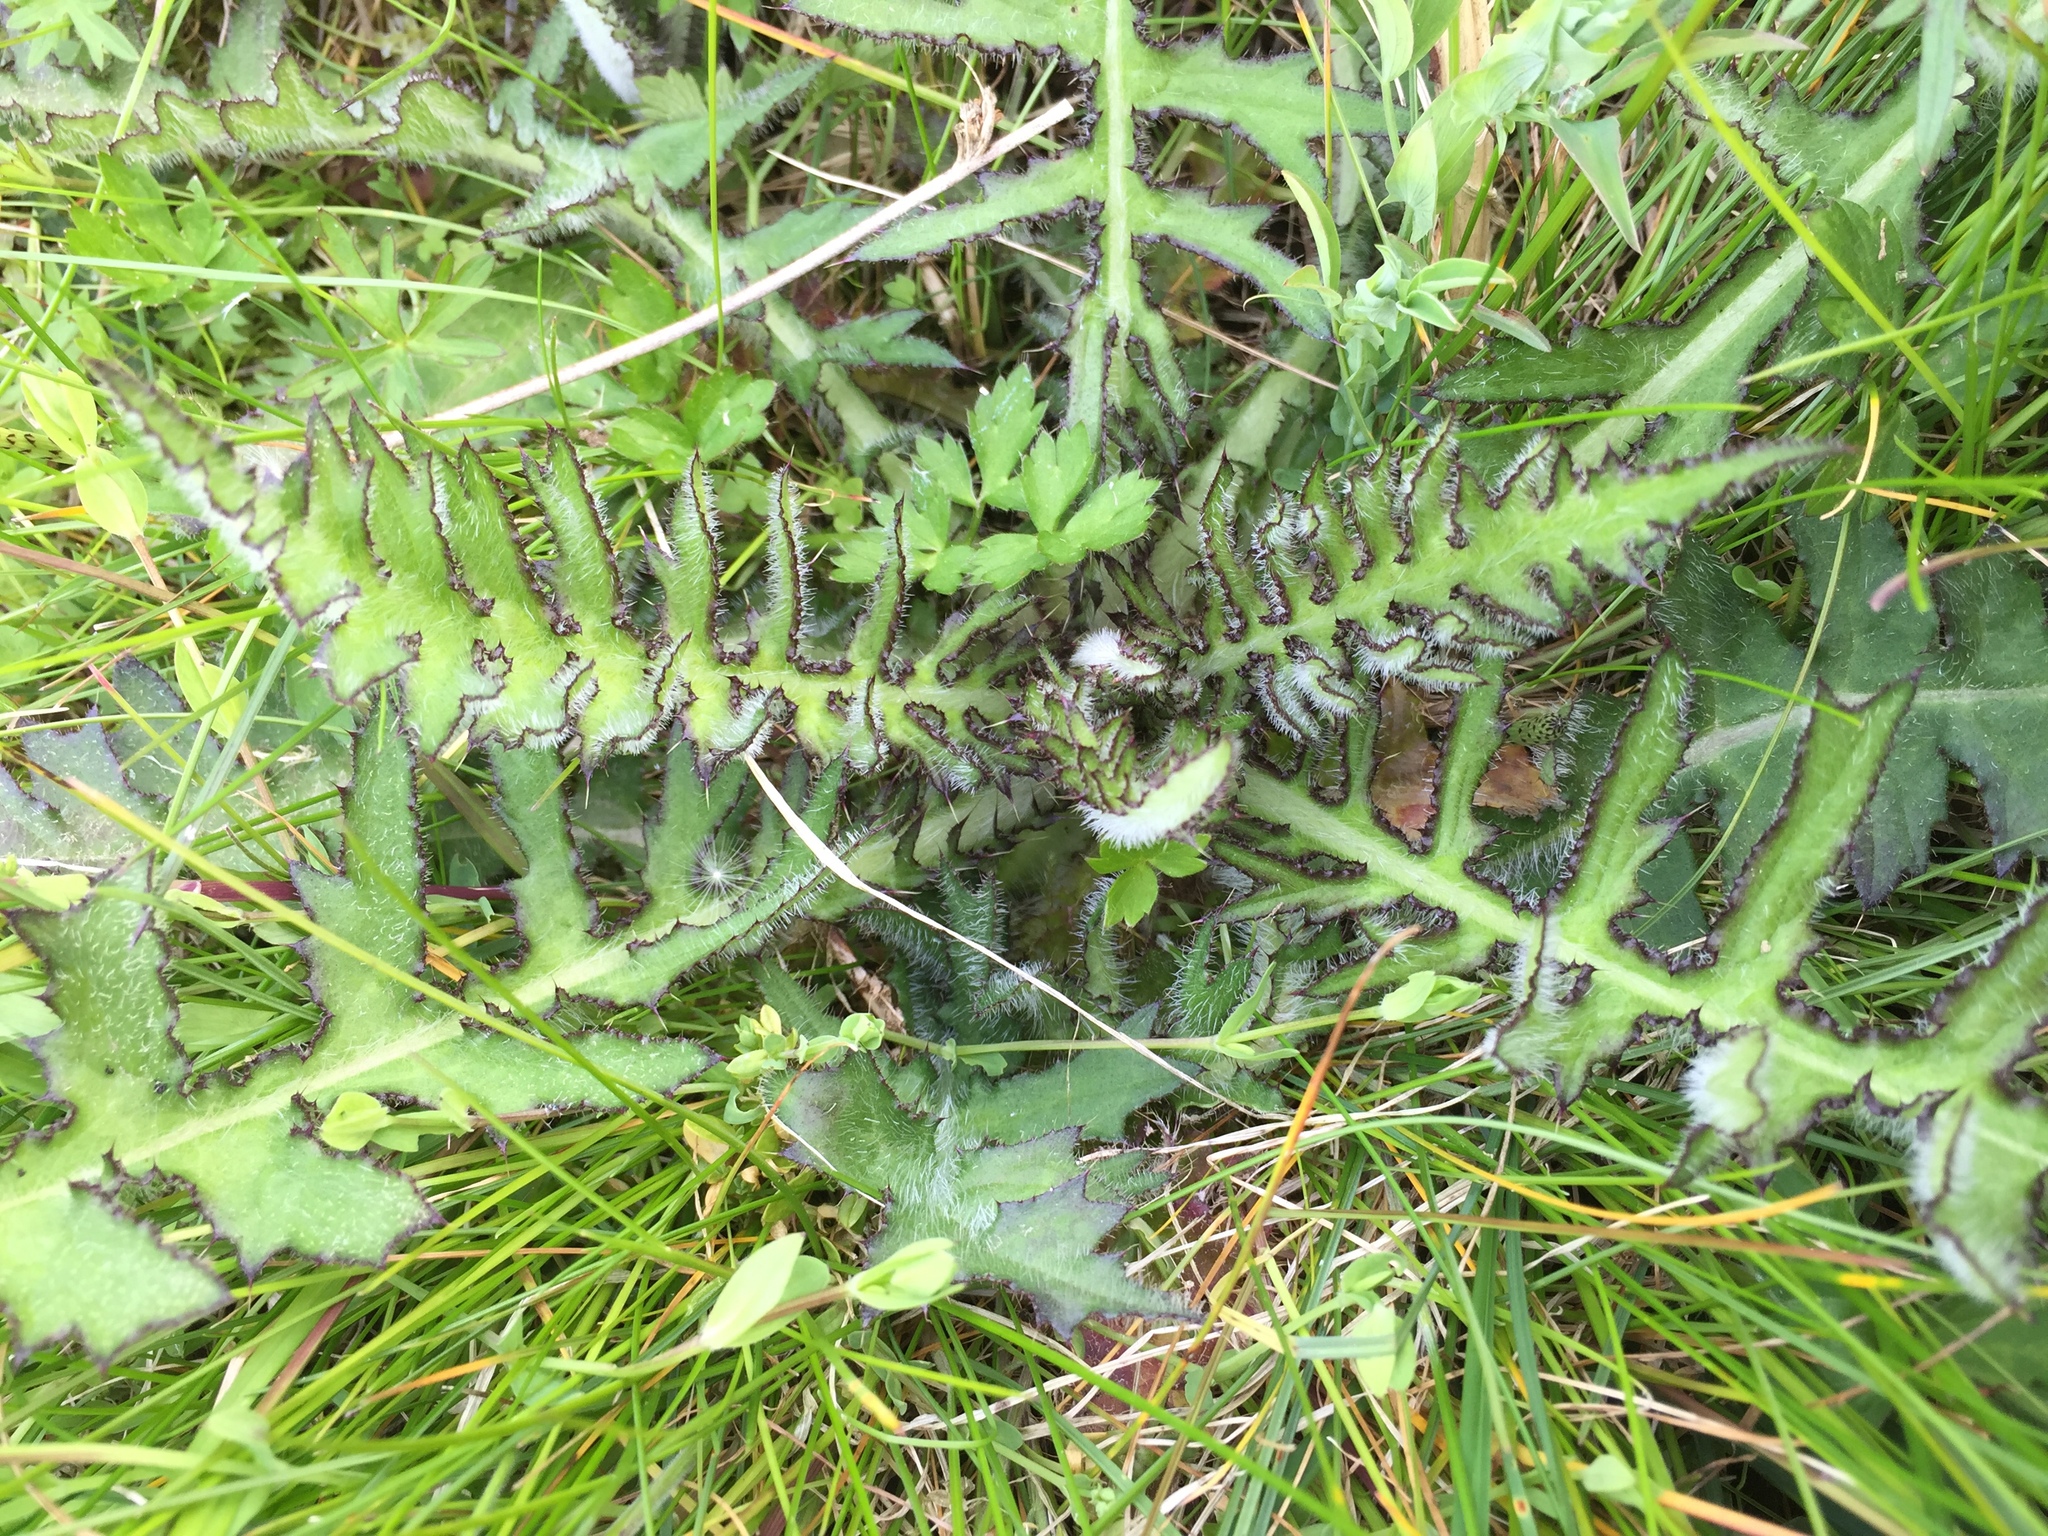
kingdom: Plantae
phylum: Tracheophyta
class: Magnoliopsida
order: Asterales
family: Asteraceae
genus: Cirsium
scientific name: Cirsium palustre
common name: Marsh thistle
